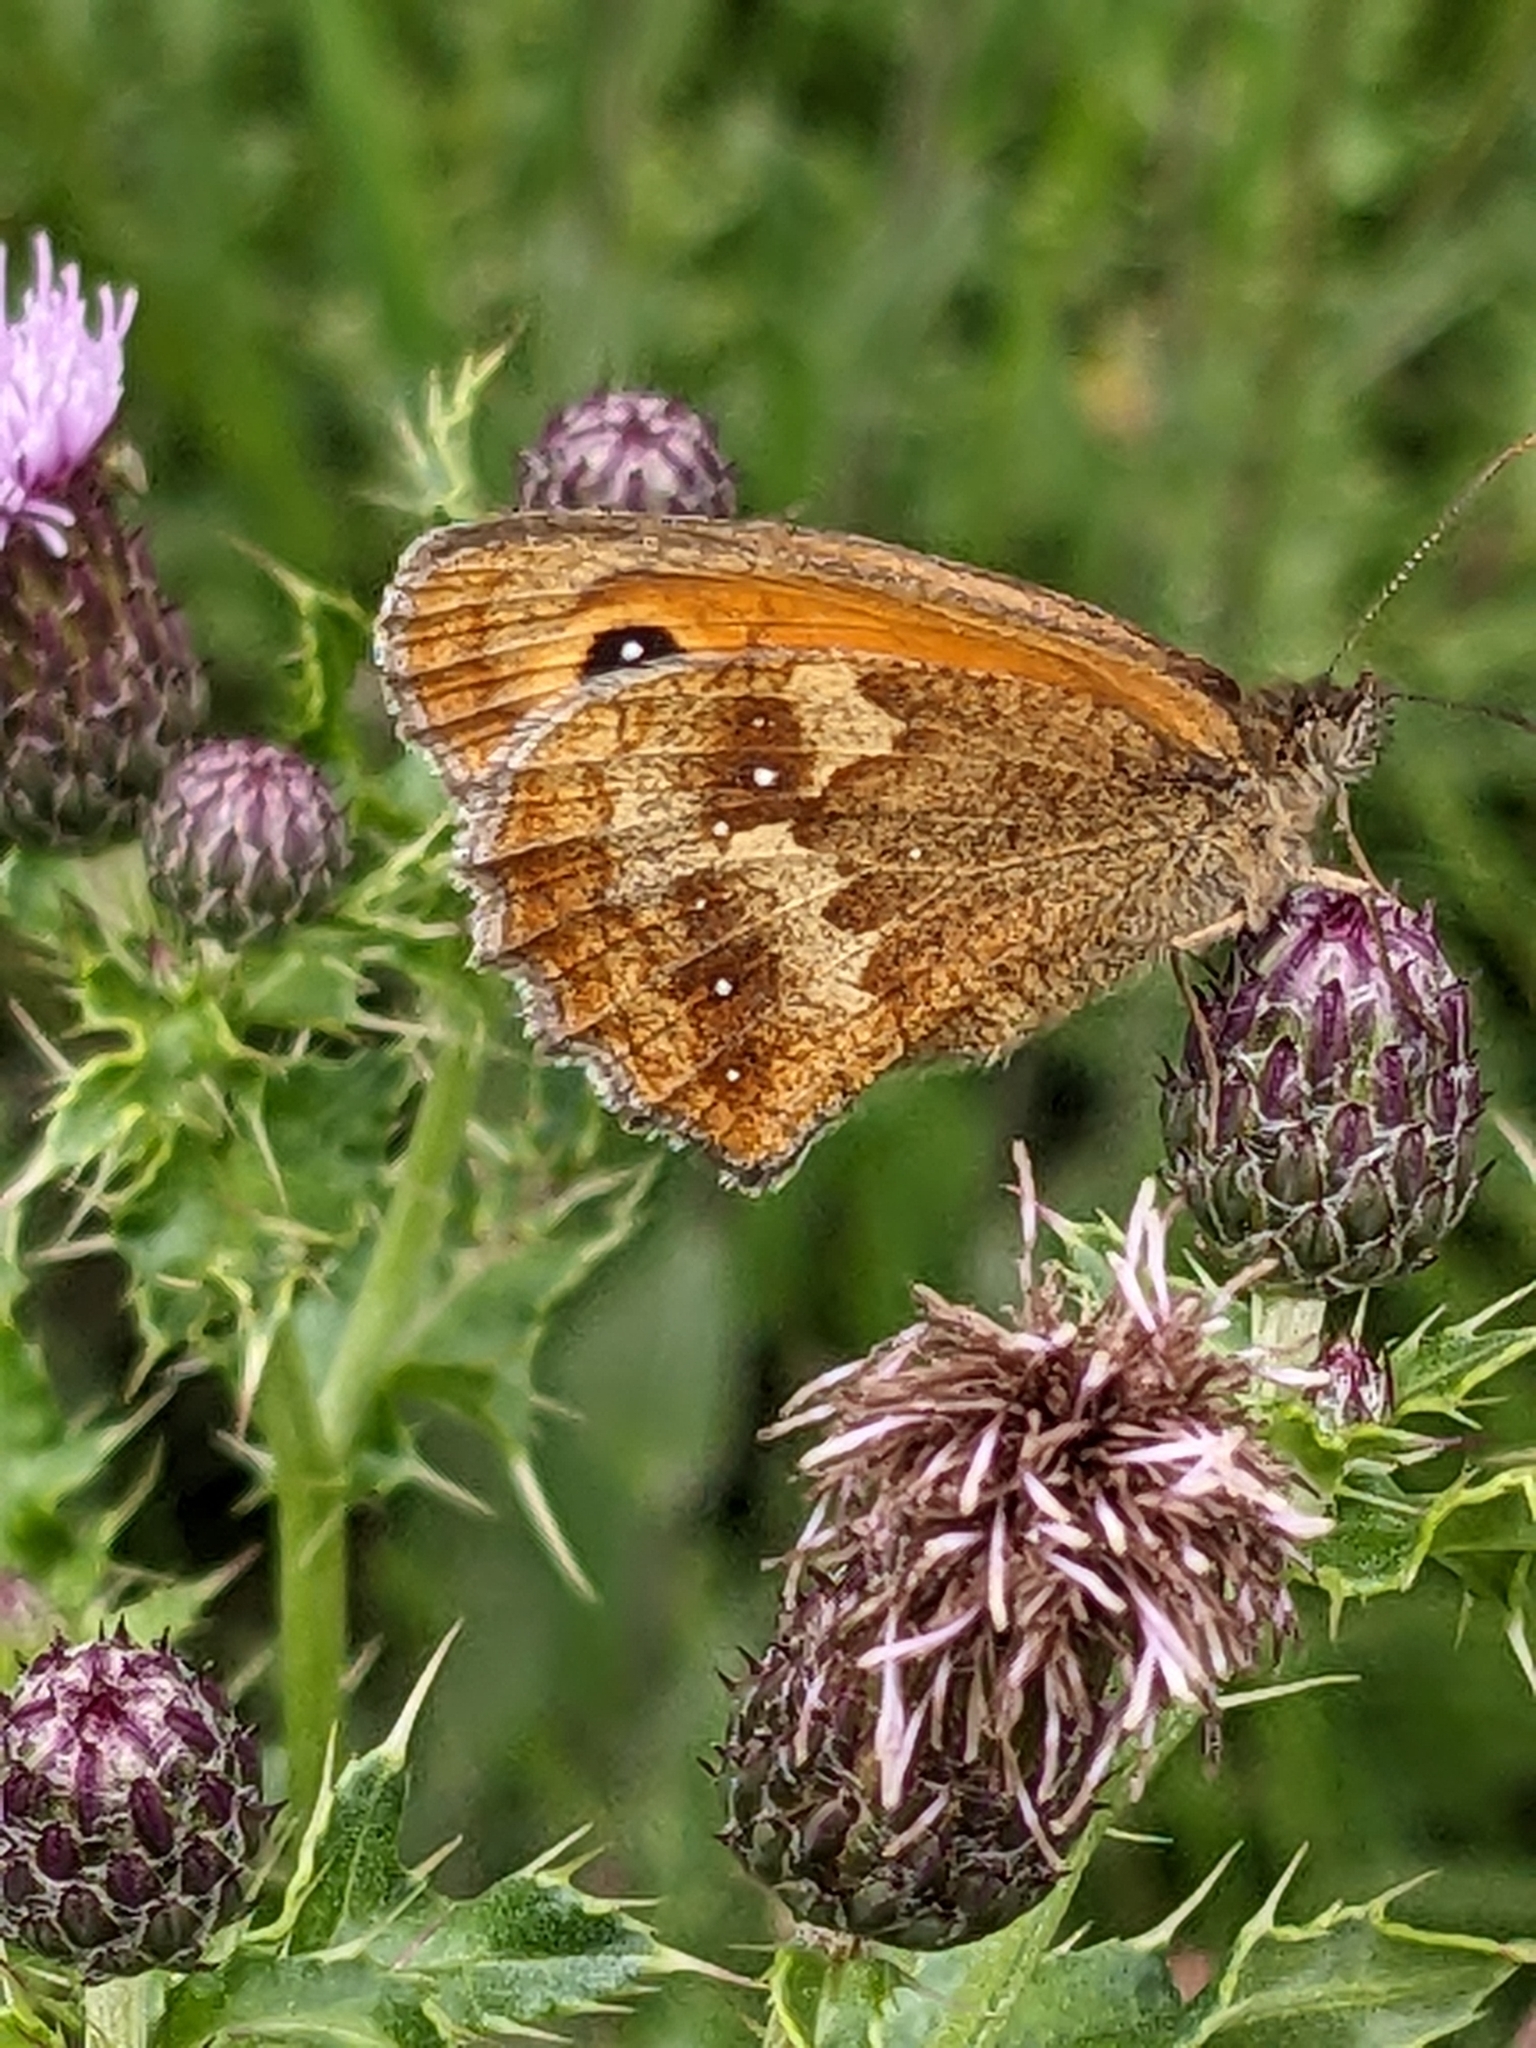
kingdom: Animalia
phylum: Arthropoda
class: Insecta
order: Lepidoptera
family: Nymphalidae
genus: Pyronia
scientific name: Pyronia tithonus
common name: Gatekeeper
